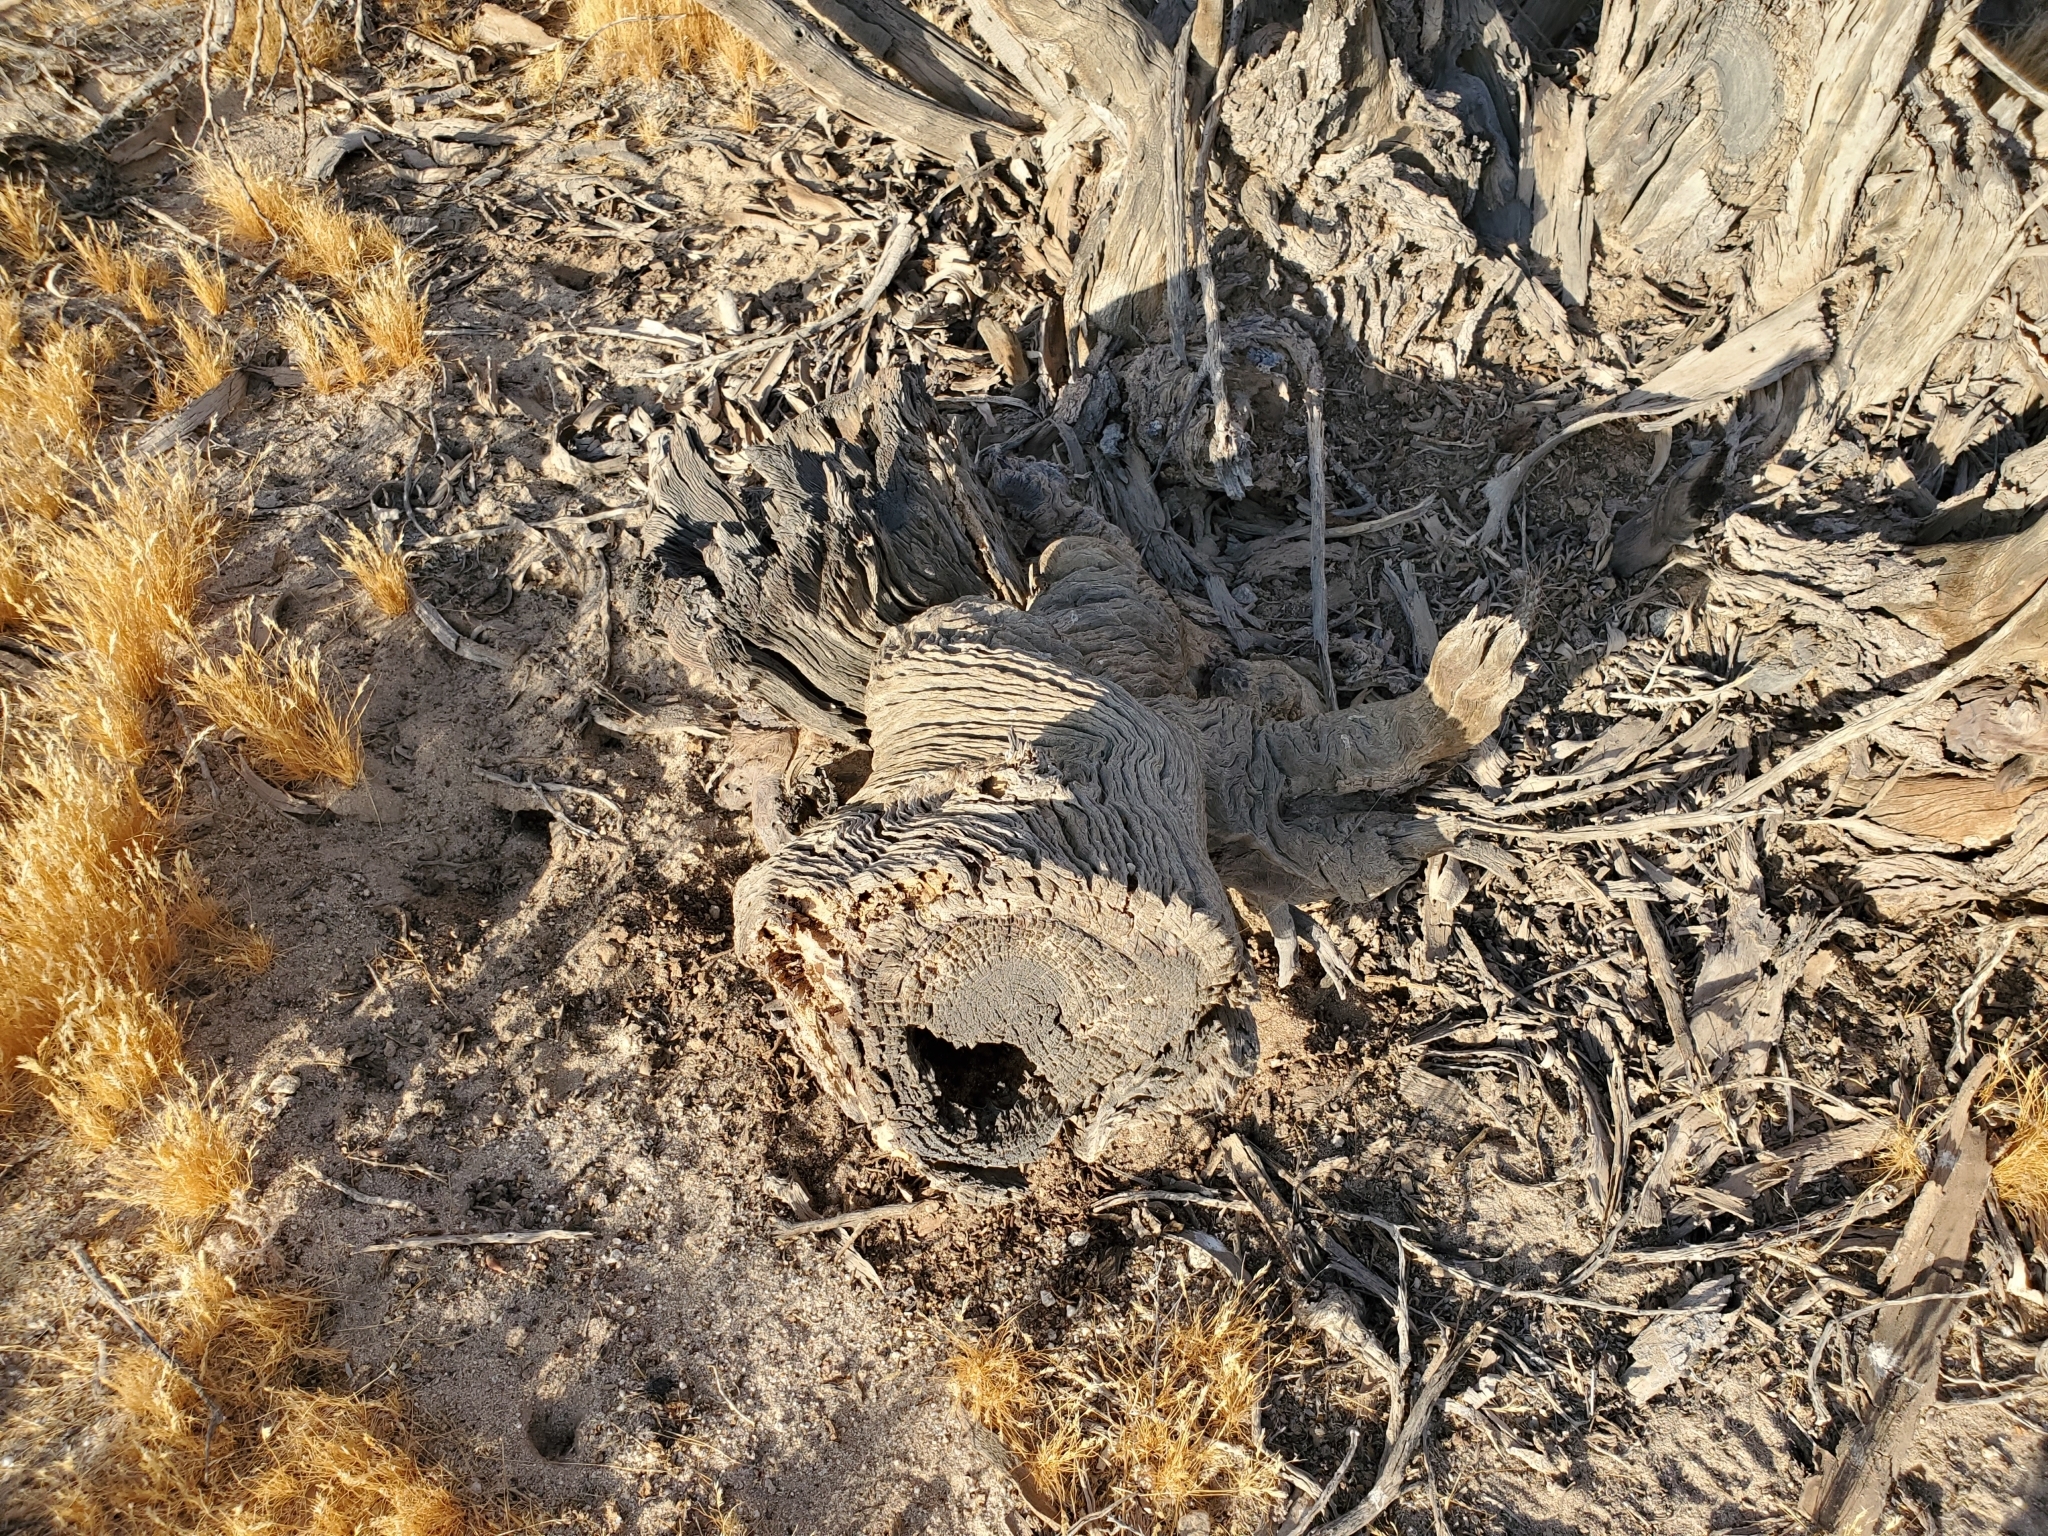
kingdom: Plantae
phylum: Tracheophyta
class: Magnoliopsida
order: Fabales
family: Fabaceae
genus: Olneya
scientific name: Olneya tesota
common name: Desert ironwood
